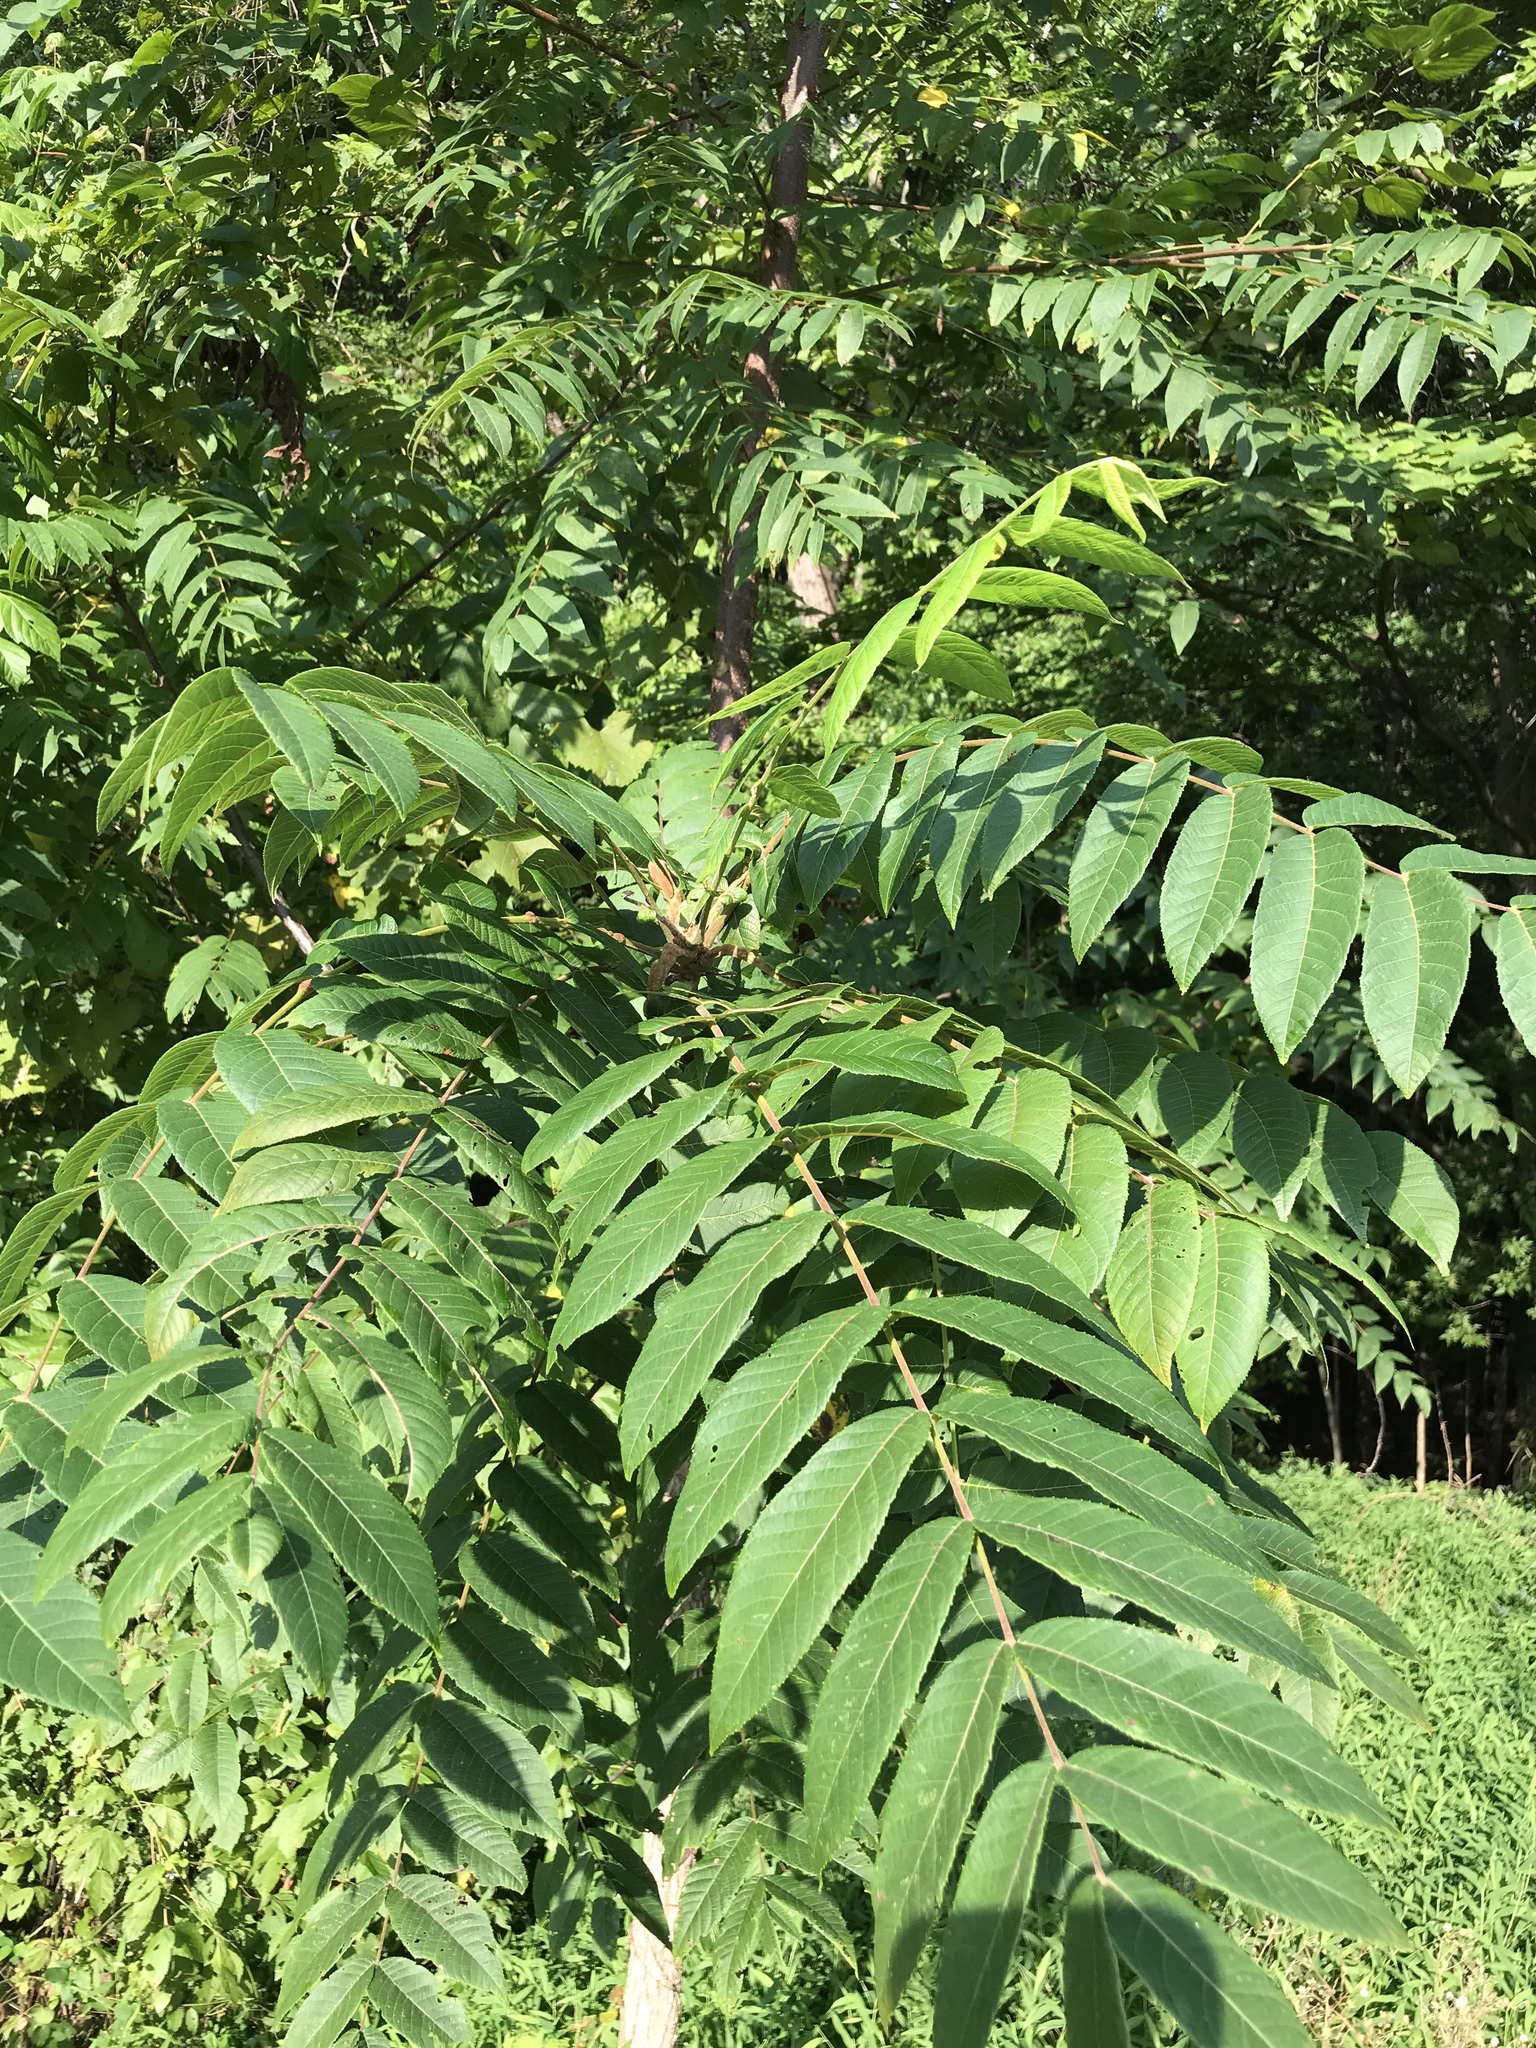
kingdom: Plantae
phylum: Tracheophyta
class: Magnoliopsida
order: Fagales
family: Juglandaceae
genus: Juglans
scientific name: Juglans nigra
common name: Black walnut
